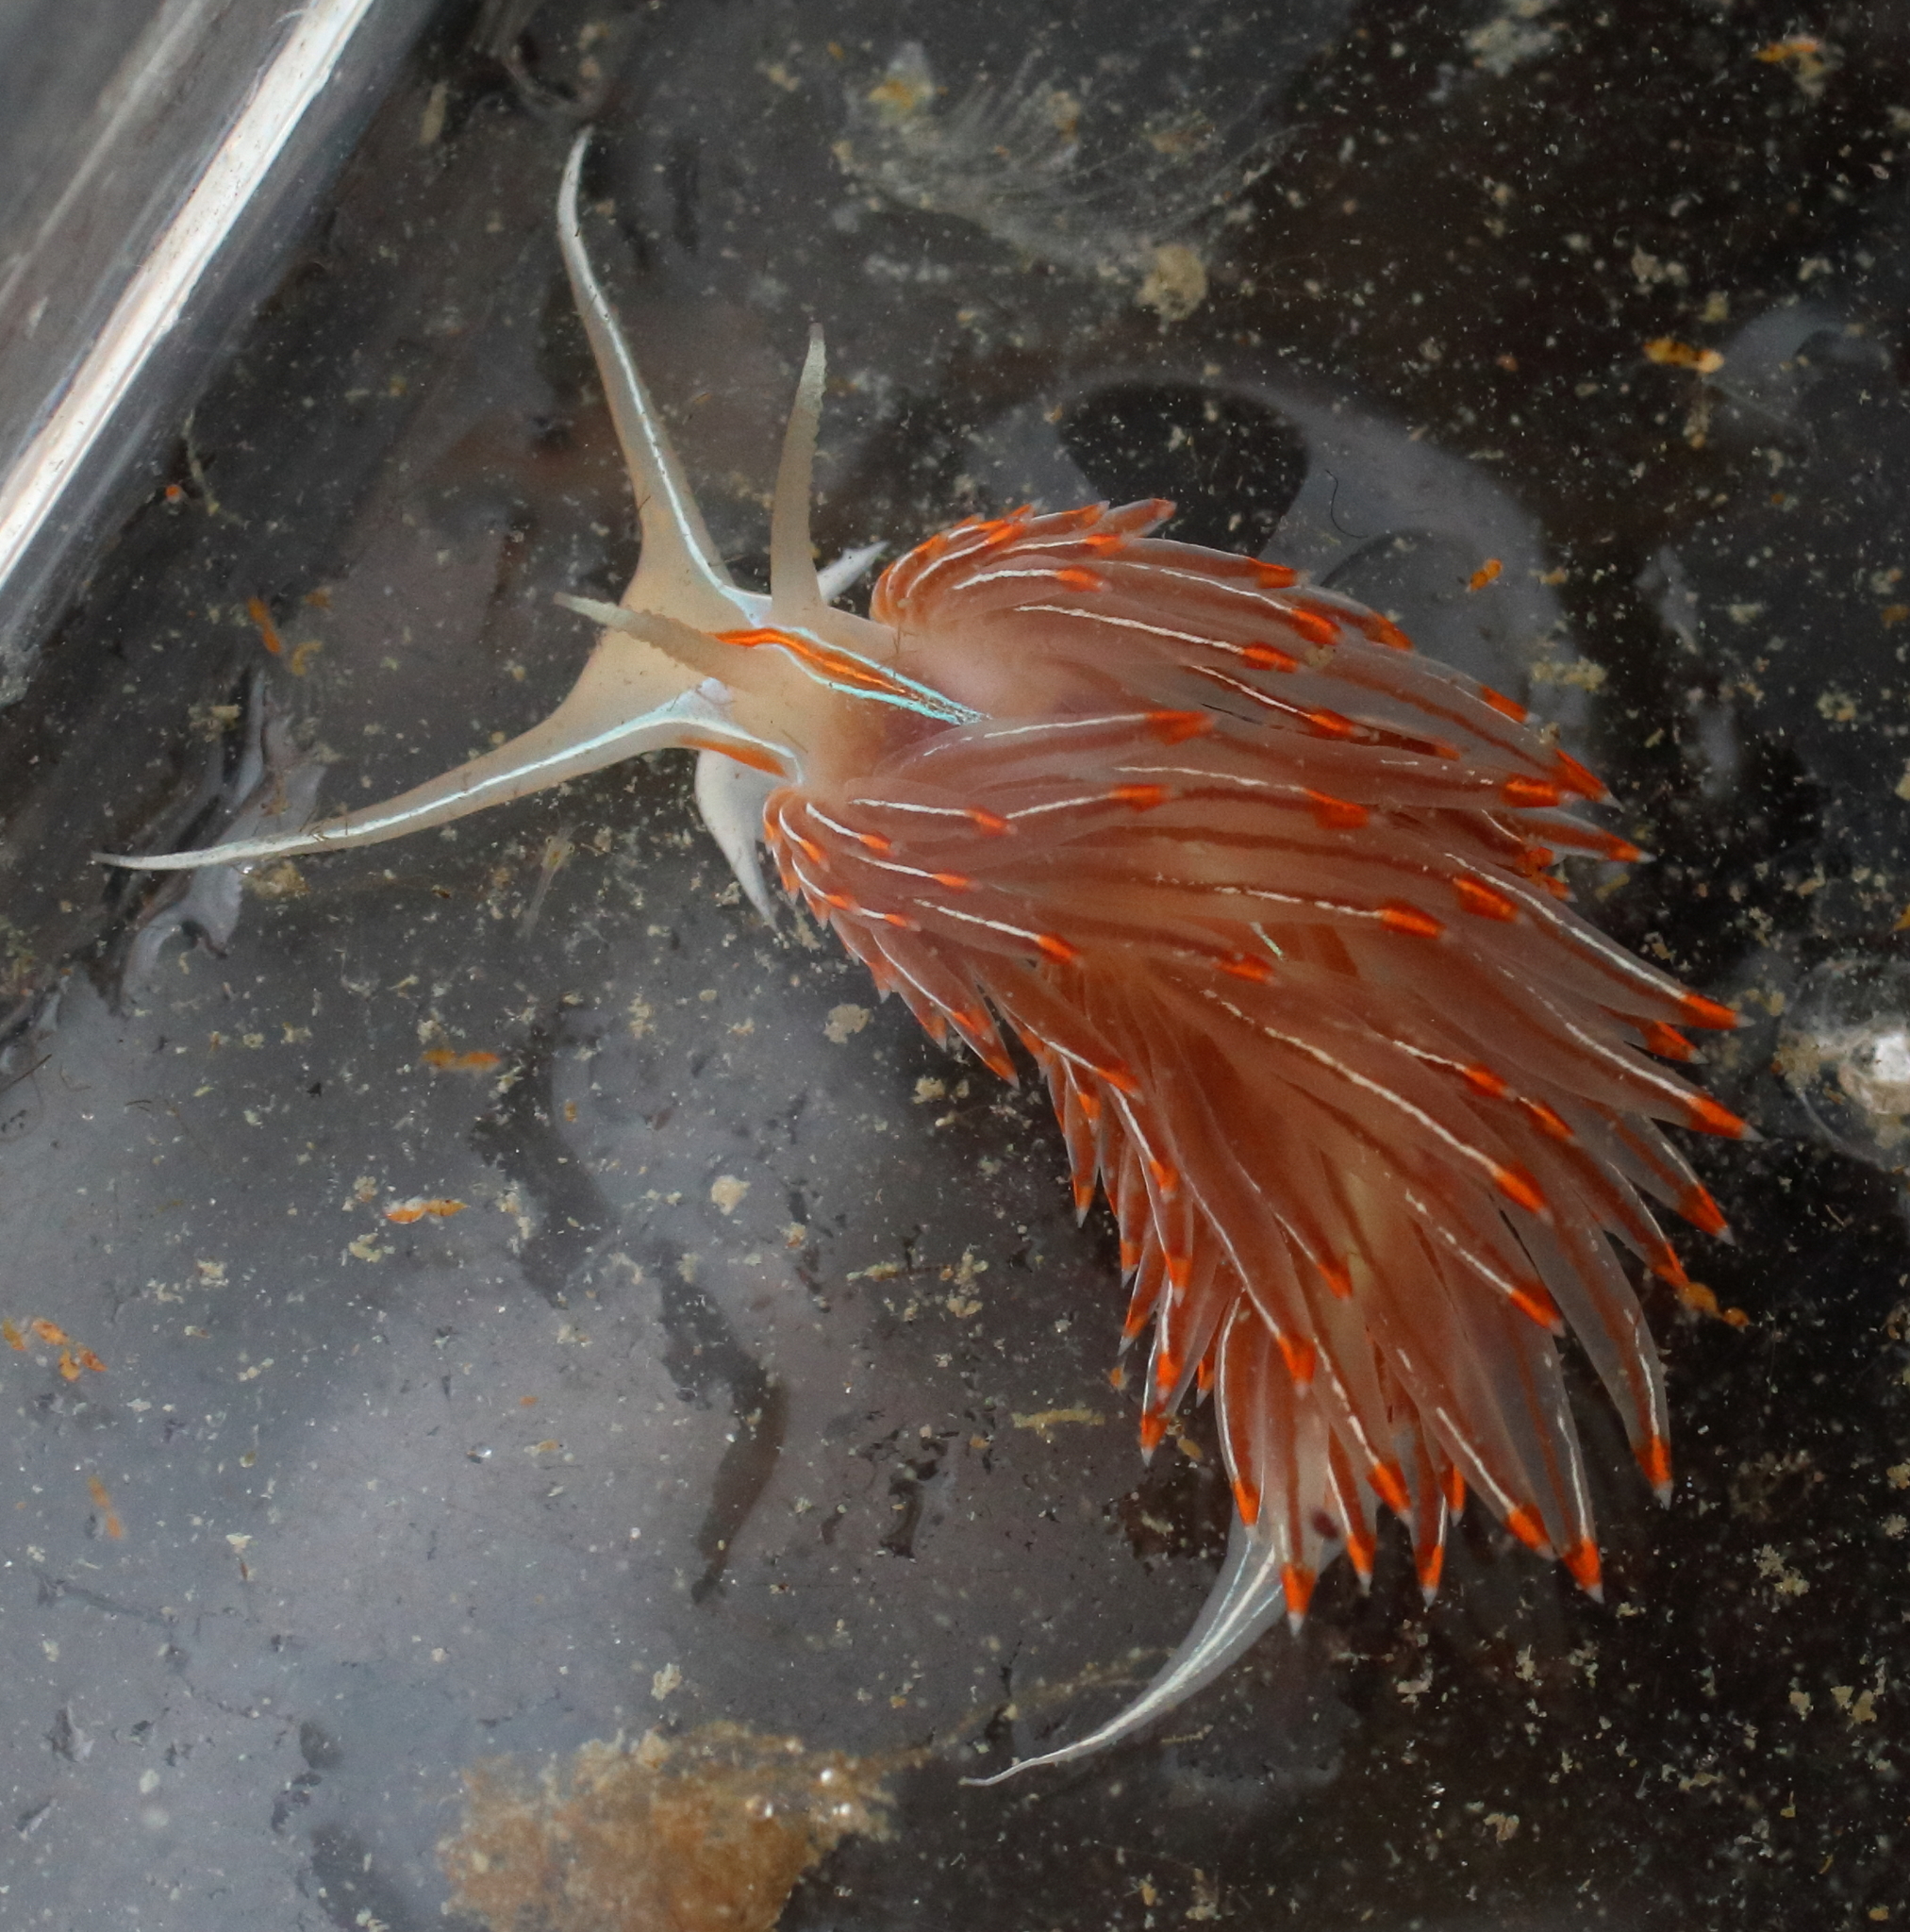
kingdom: Animalia
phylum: Mollusca
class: Gastropoda
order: Nudibranchia
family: Myrrhinidae
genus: Hermissenda
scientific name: Hermissenda crassicornis
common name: Hermissenda
